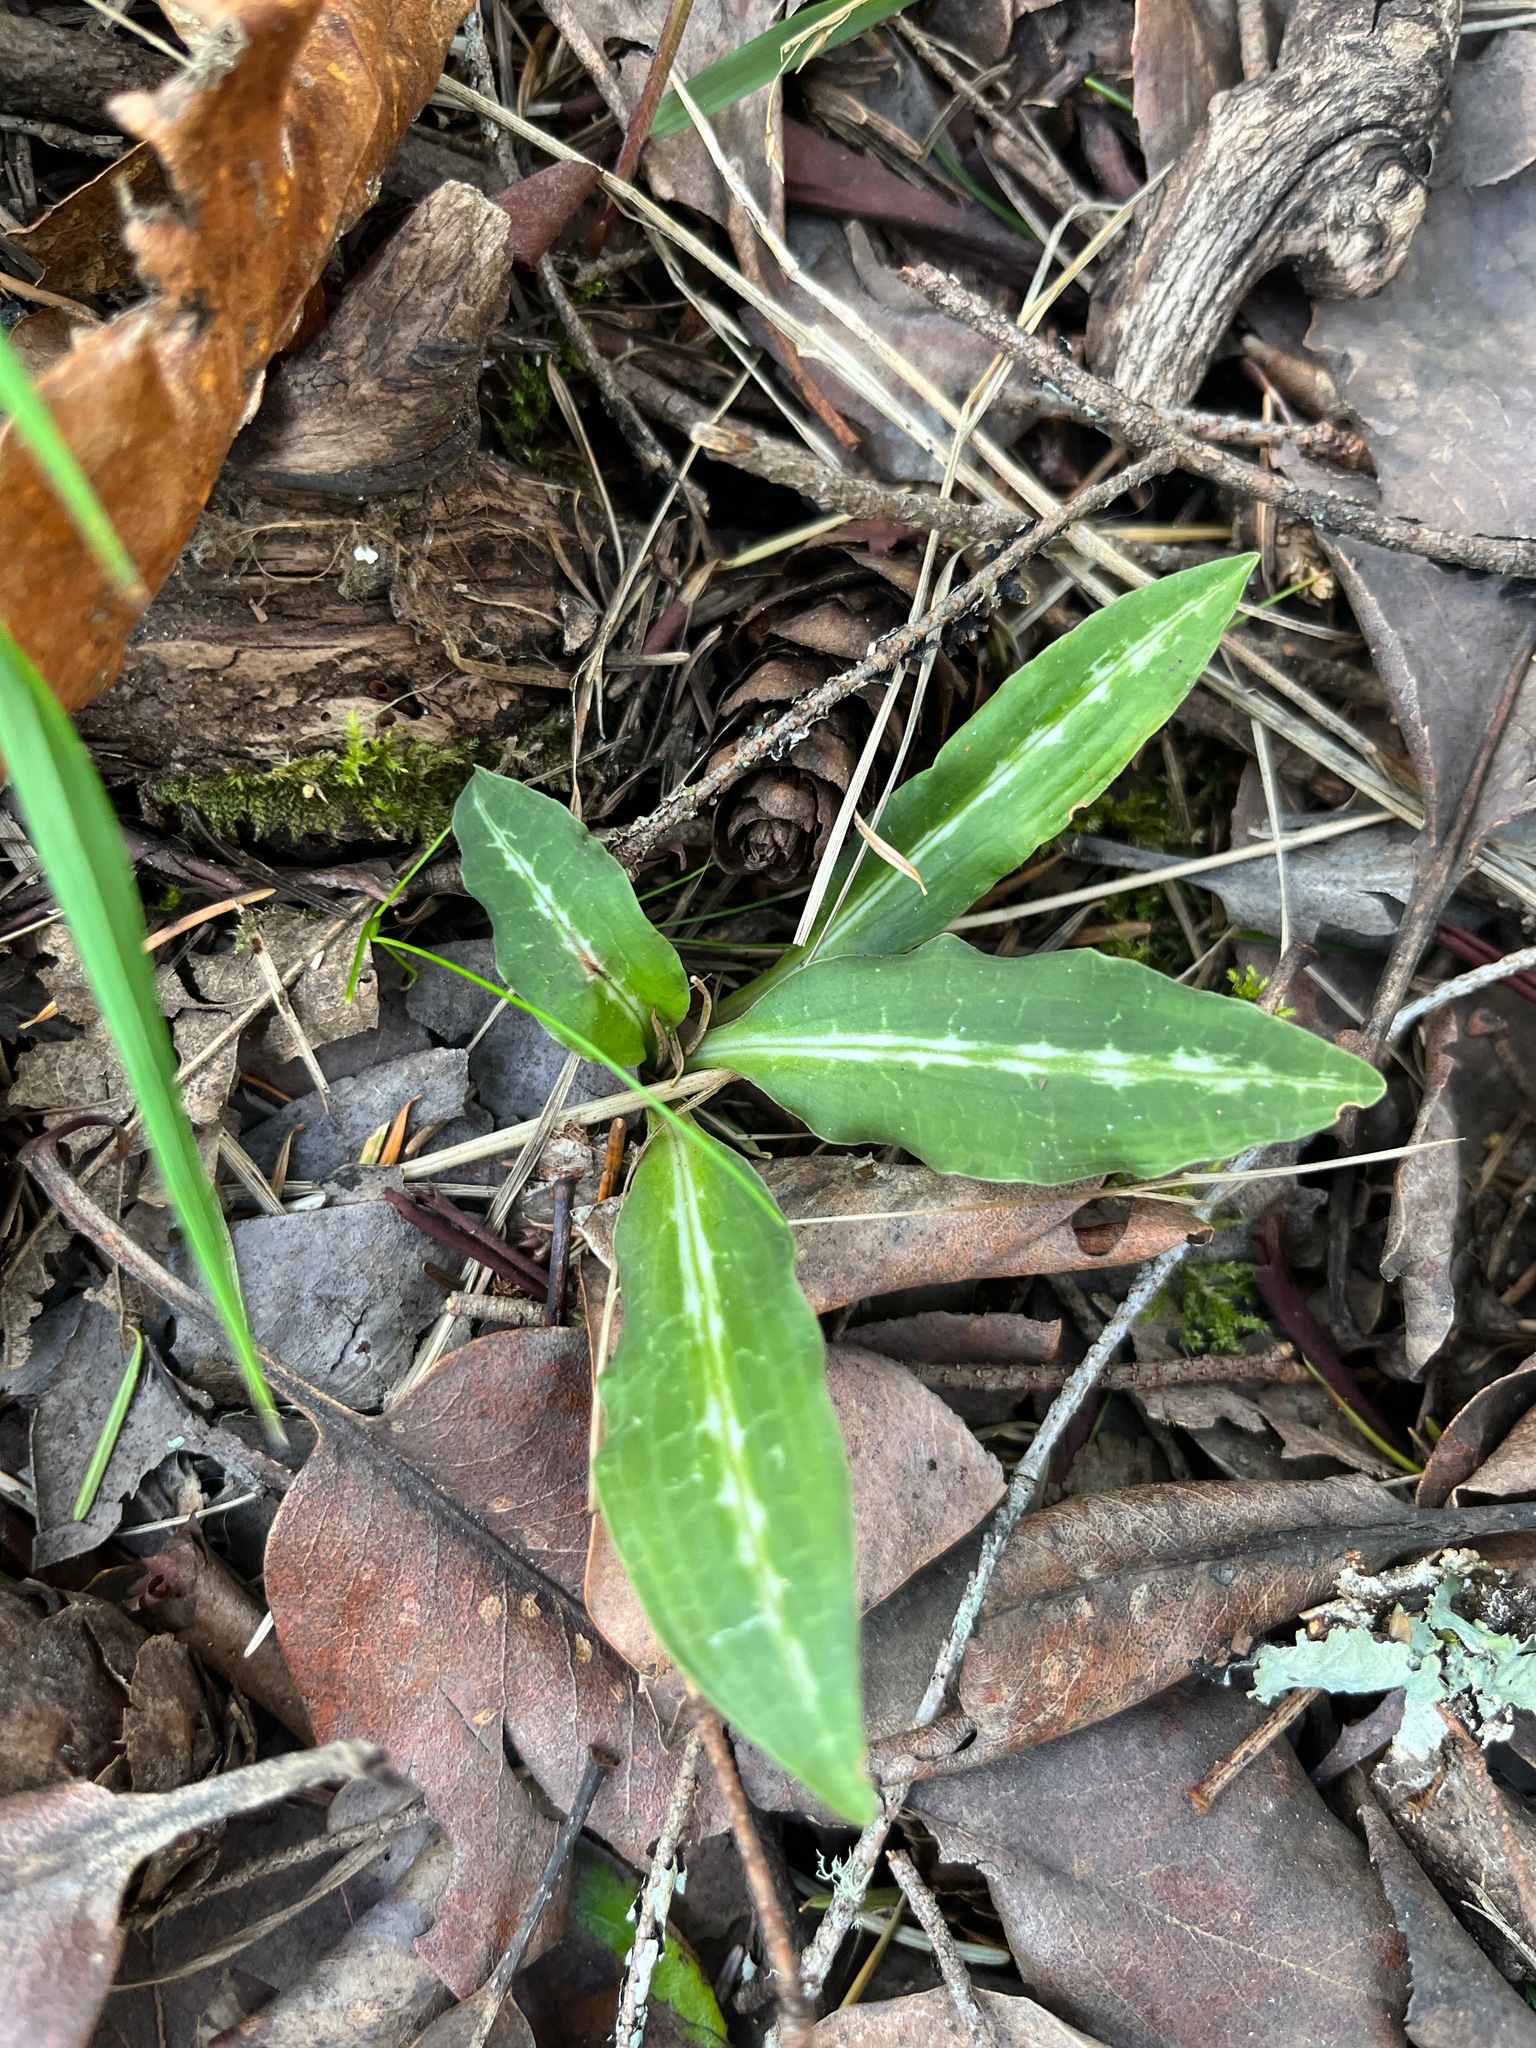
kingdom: Plantae
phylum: Tracheophyta
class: Liliopsida
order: Asparagales
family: Orchidaceae
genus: Goodyera
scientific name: Goodyera oblongifolia
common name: Giant rattlesnake-plantain
